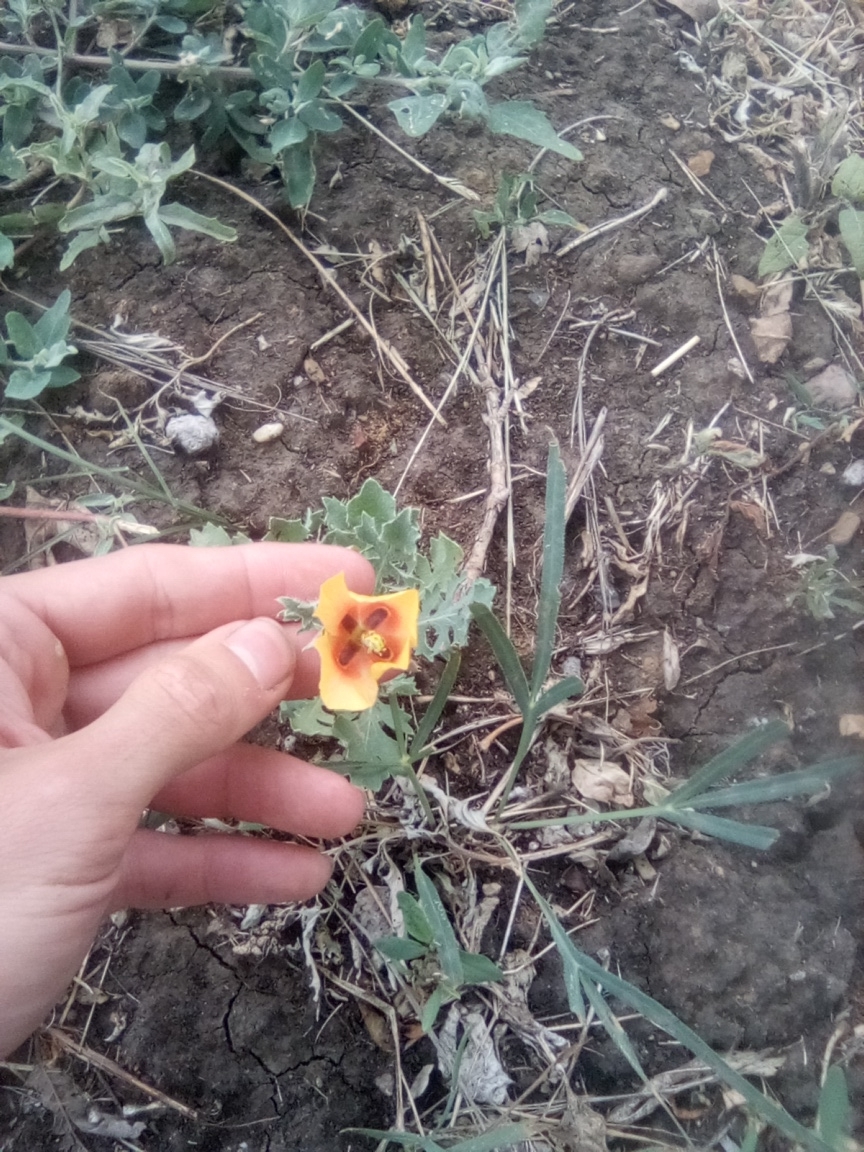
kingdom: Plantae
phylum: Tracheophyta
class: Magnoliopsida
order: Ranunculales
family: Papaveraceae
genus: Glaucium
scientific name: Glaucium corniculatum
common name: Red horned-poppy
